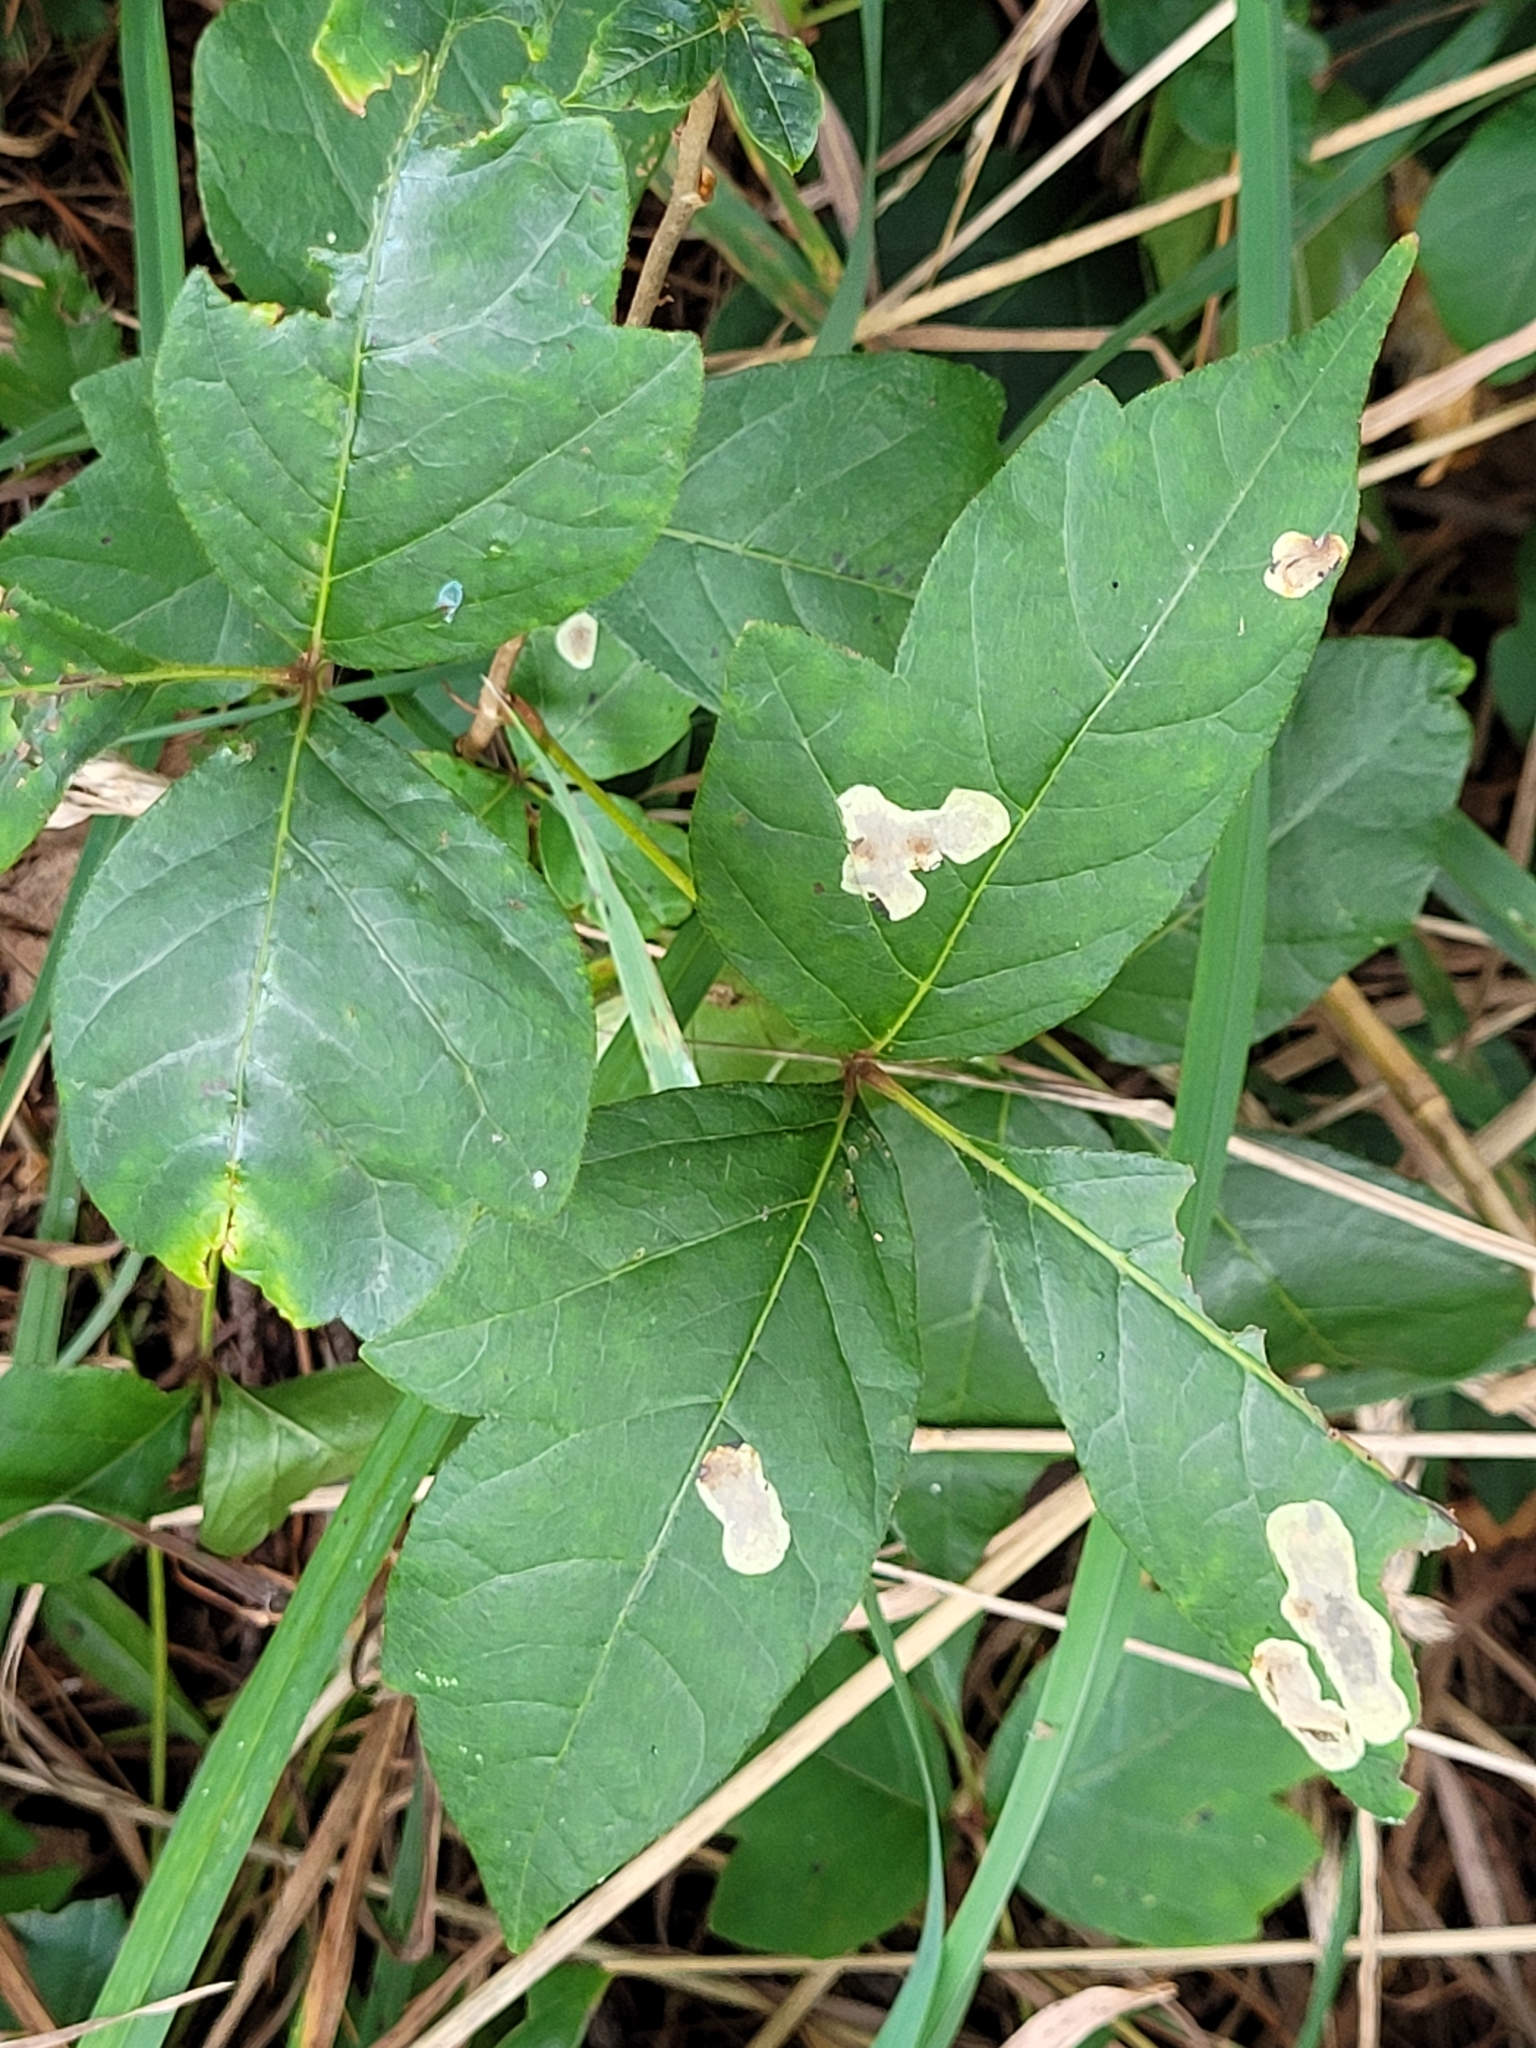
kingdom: Animalia
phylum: Arthropoda
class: Insecta
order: Lepidoptera
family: Gracillariidae
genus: Cameraria
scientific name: Cameraria guttifinitella
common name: Poison ivy leaf-miner moth
